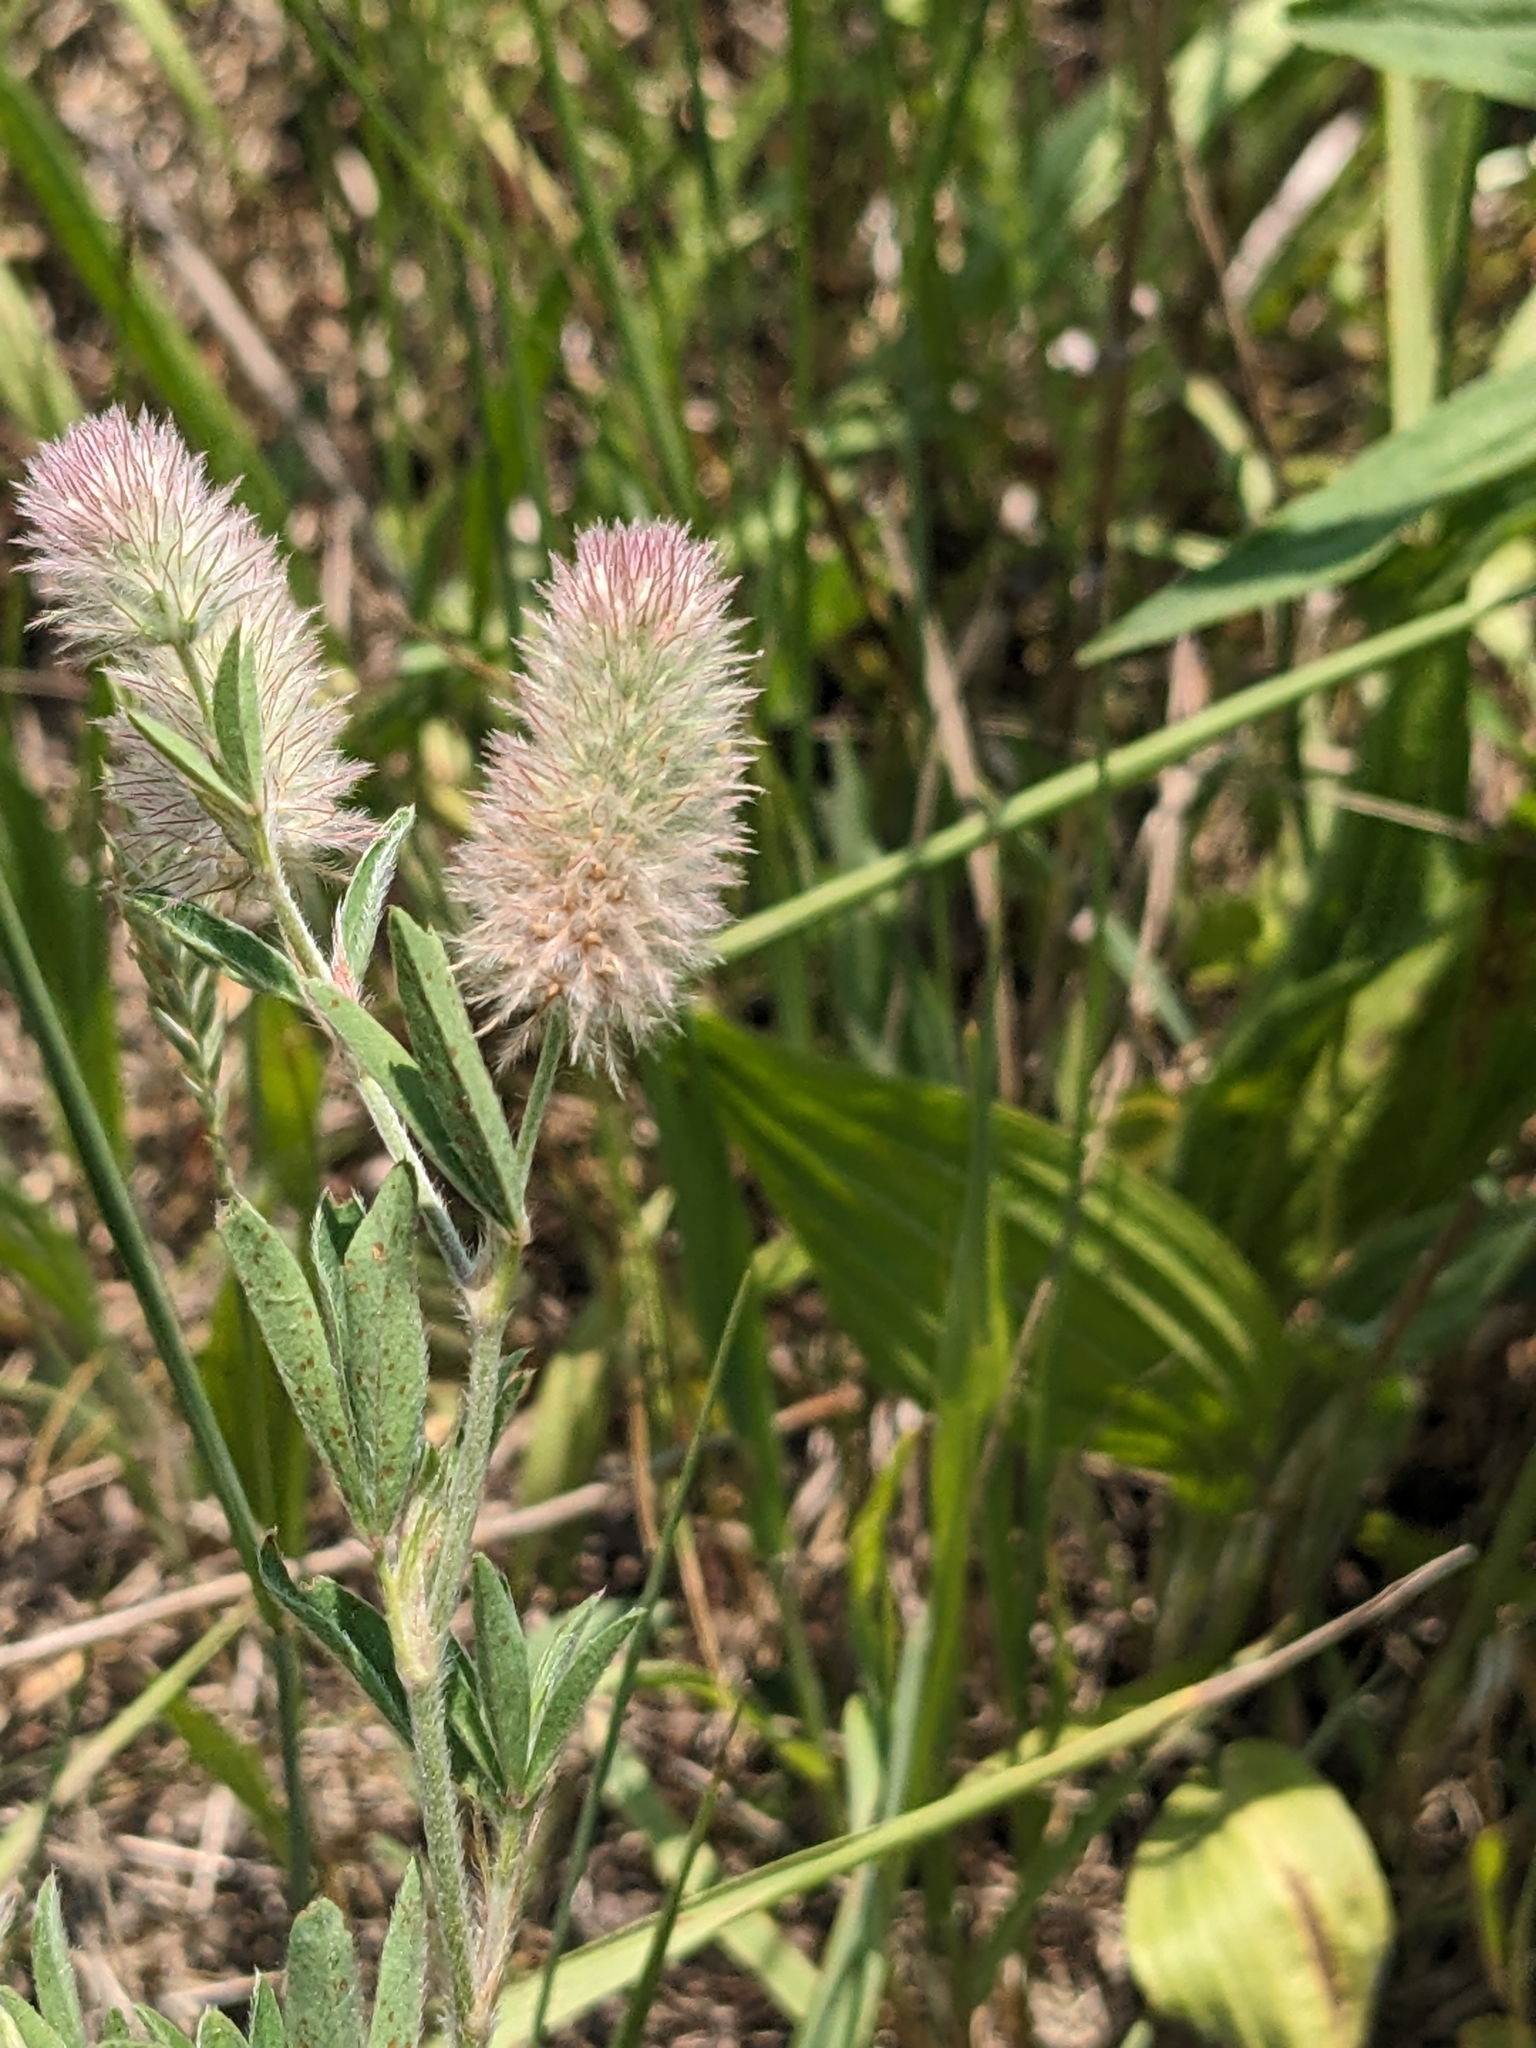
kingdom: Plantae
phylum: Tracheophyta
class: Magnoliopsida
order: Fabales
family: Fabaceae
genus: Trifolium
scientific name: Trifolium arvense
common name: Hare's-foot clover
